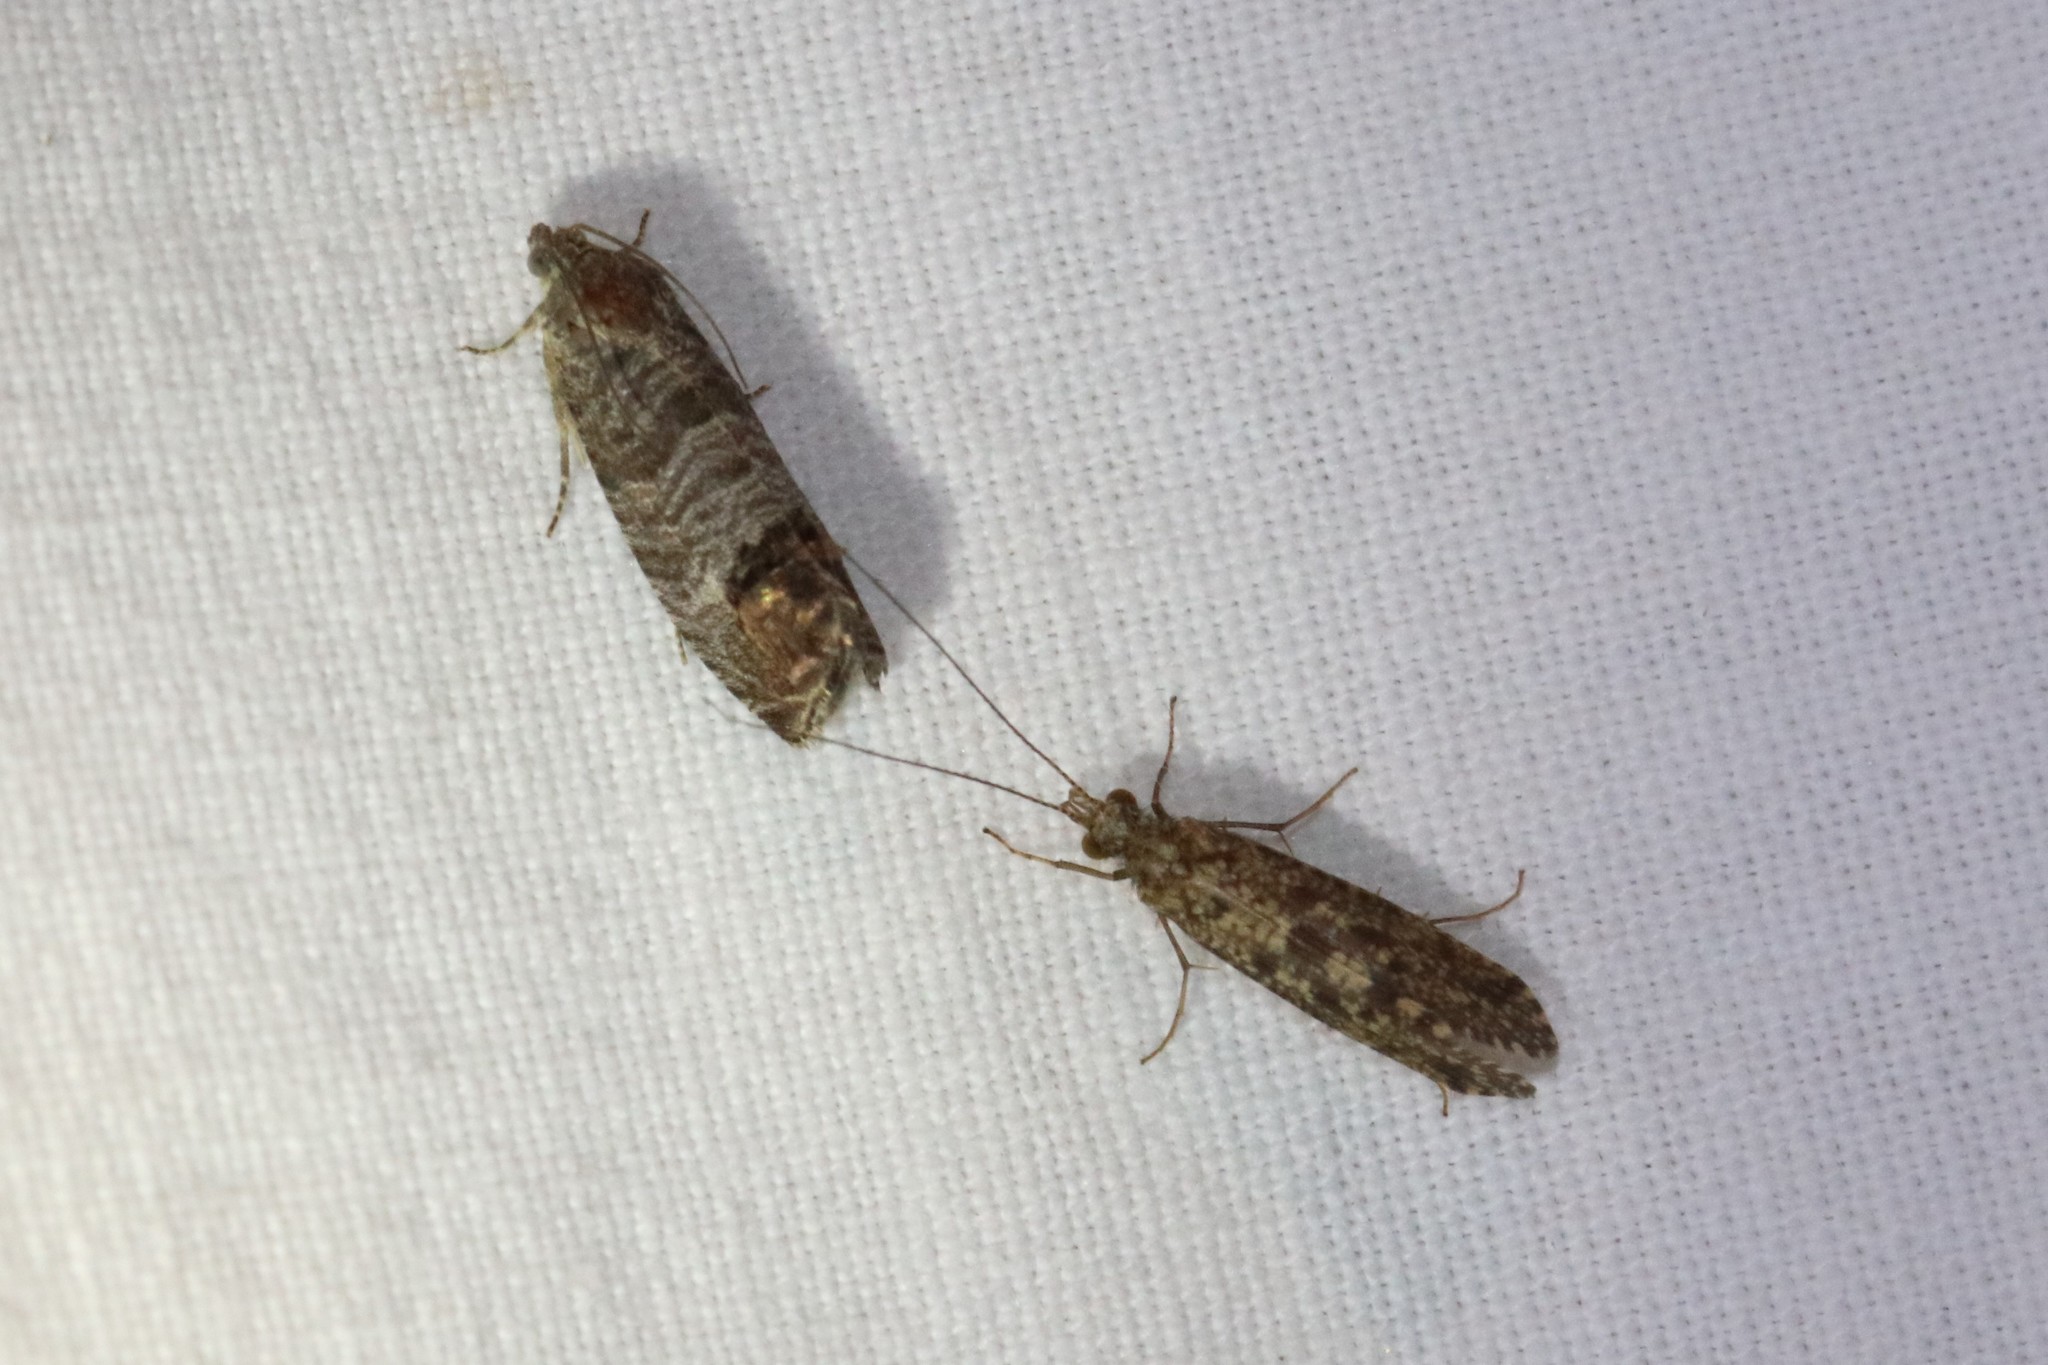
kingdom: Animalia
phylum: Arthropoda
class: Insecta
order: Lepidoptera
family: Tortricidae
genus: Cydia
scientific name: Cydia pomonella
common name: Codling moth
